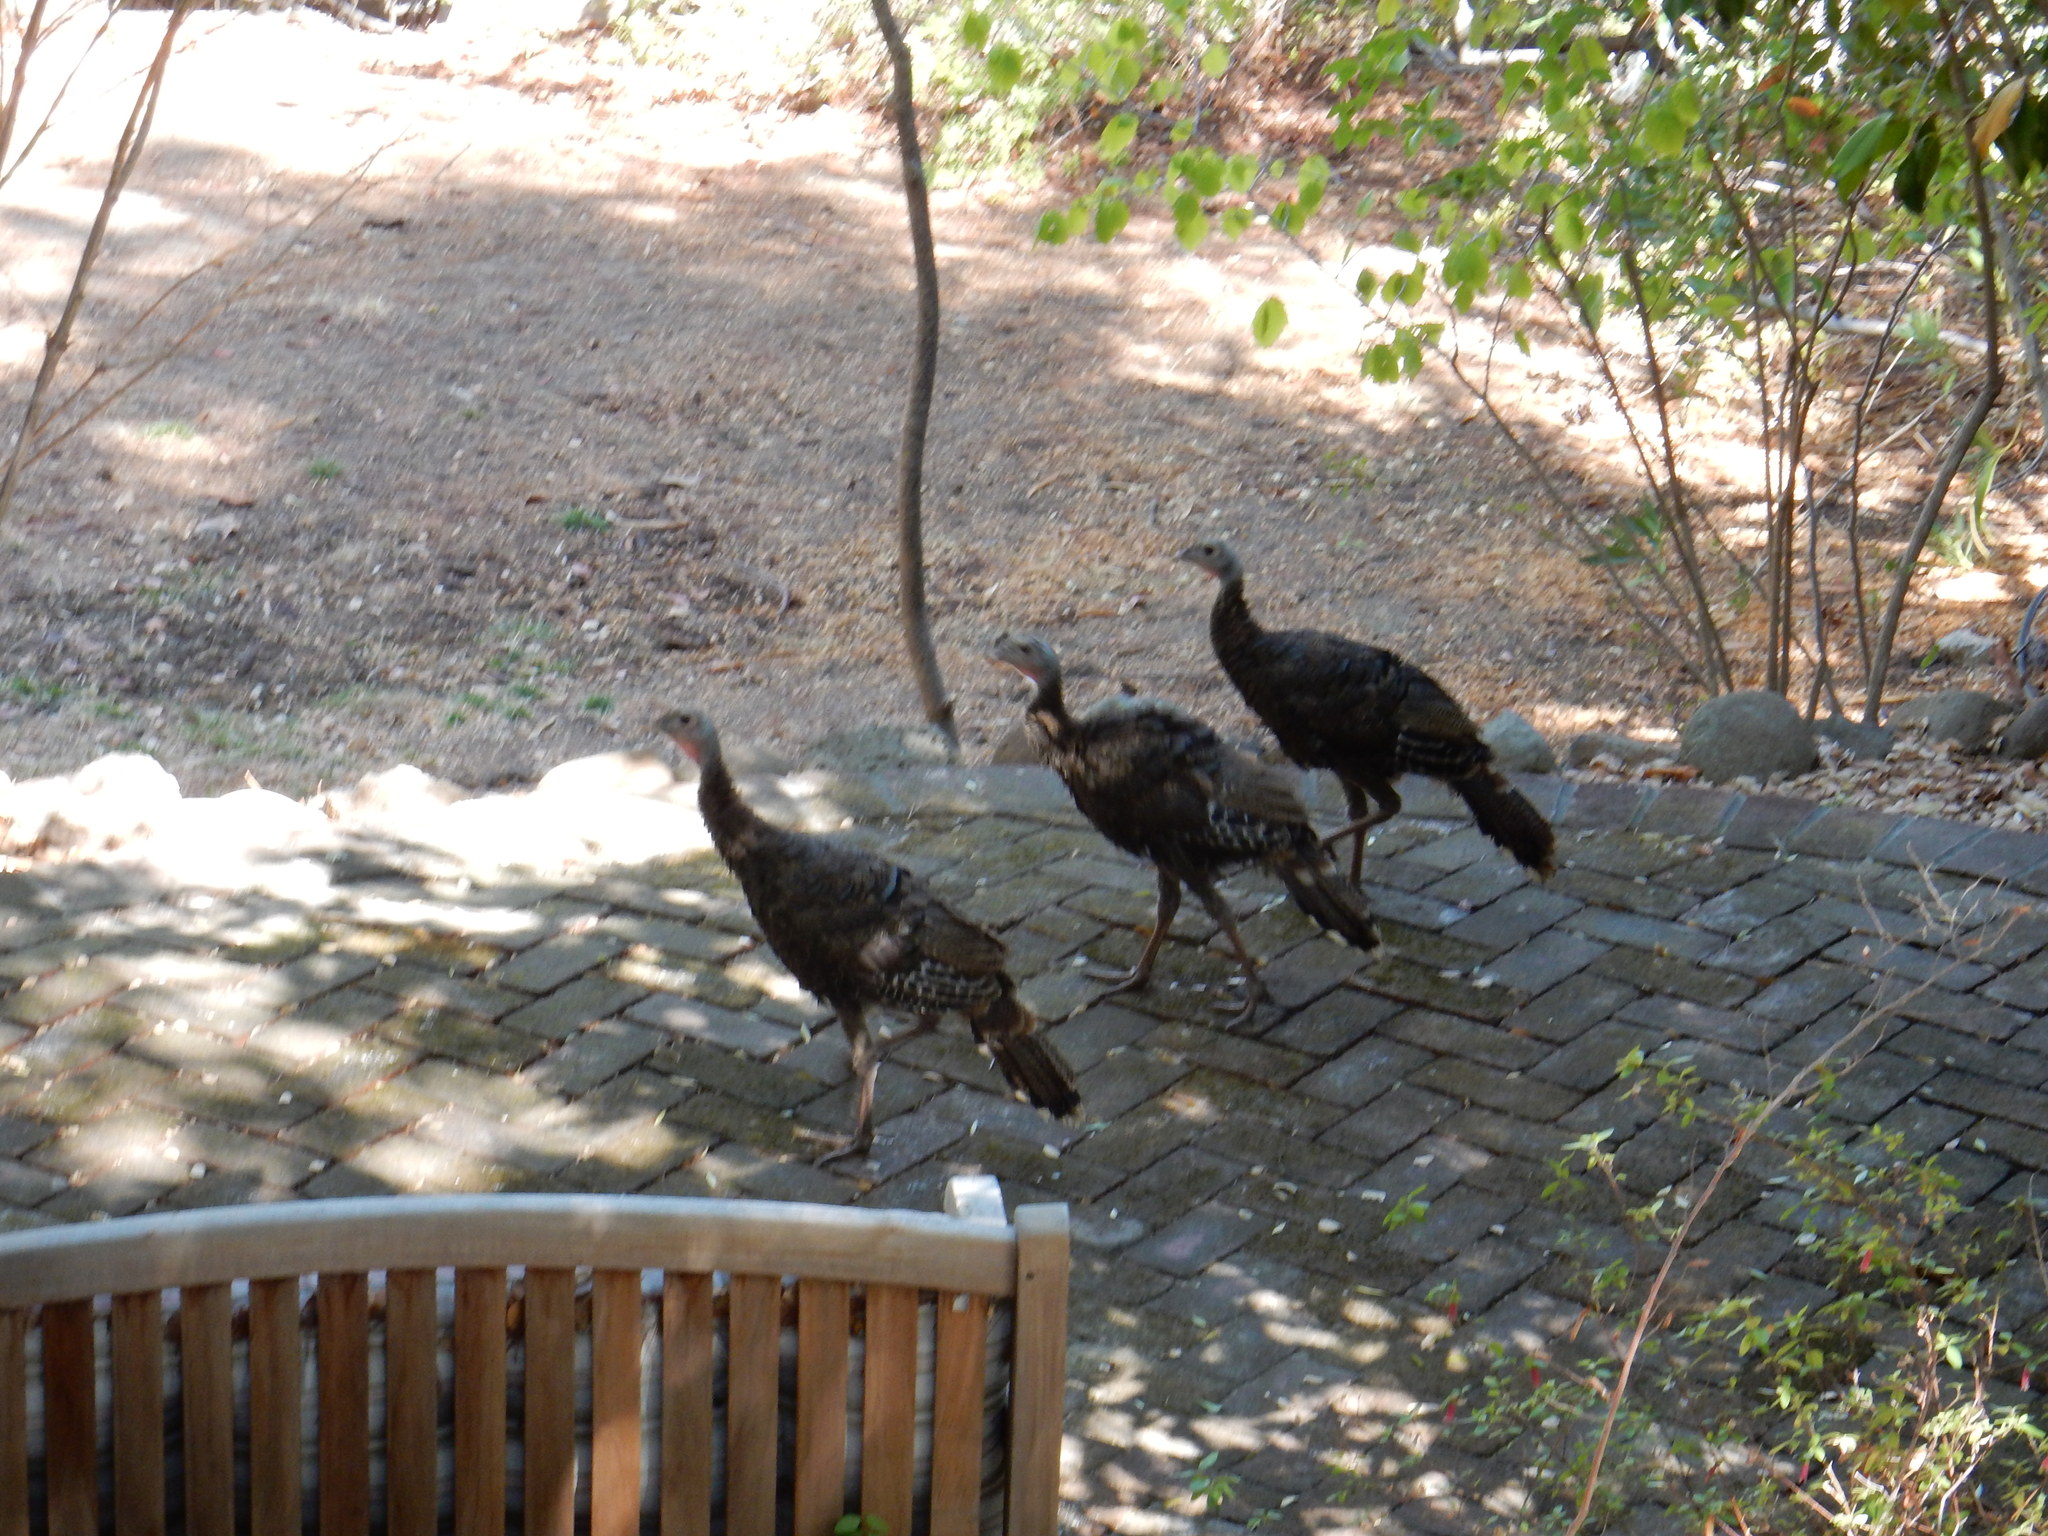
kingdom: Animalia
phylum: Chordata
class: Aves
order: Galliformes
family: Phasianidae
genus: Meleagris
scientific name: Meleagris gallopavo
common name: Wild turkey
